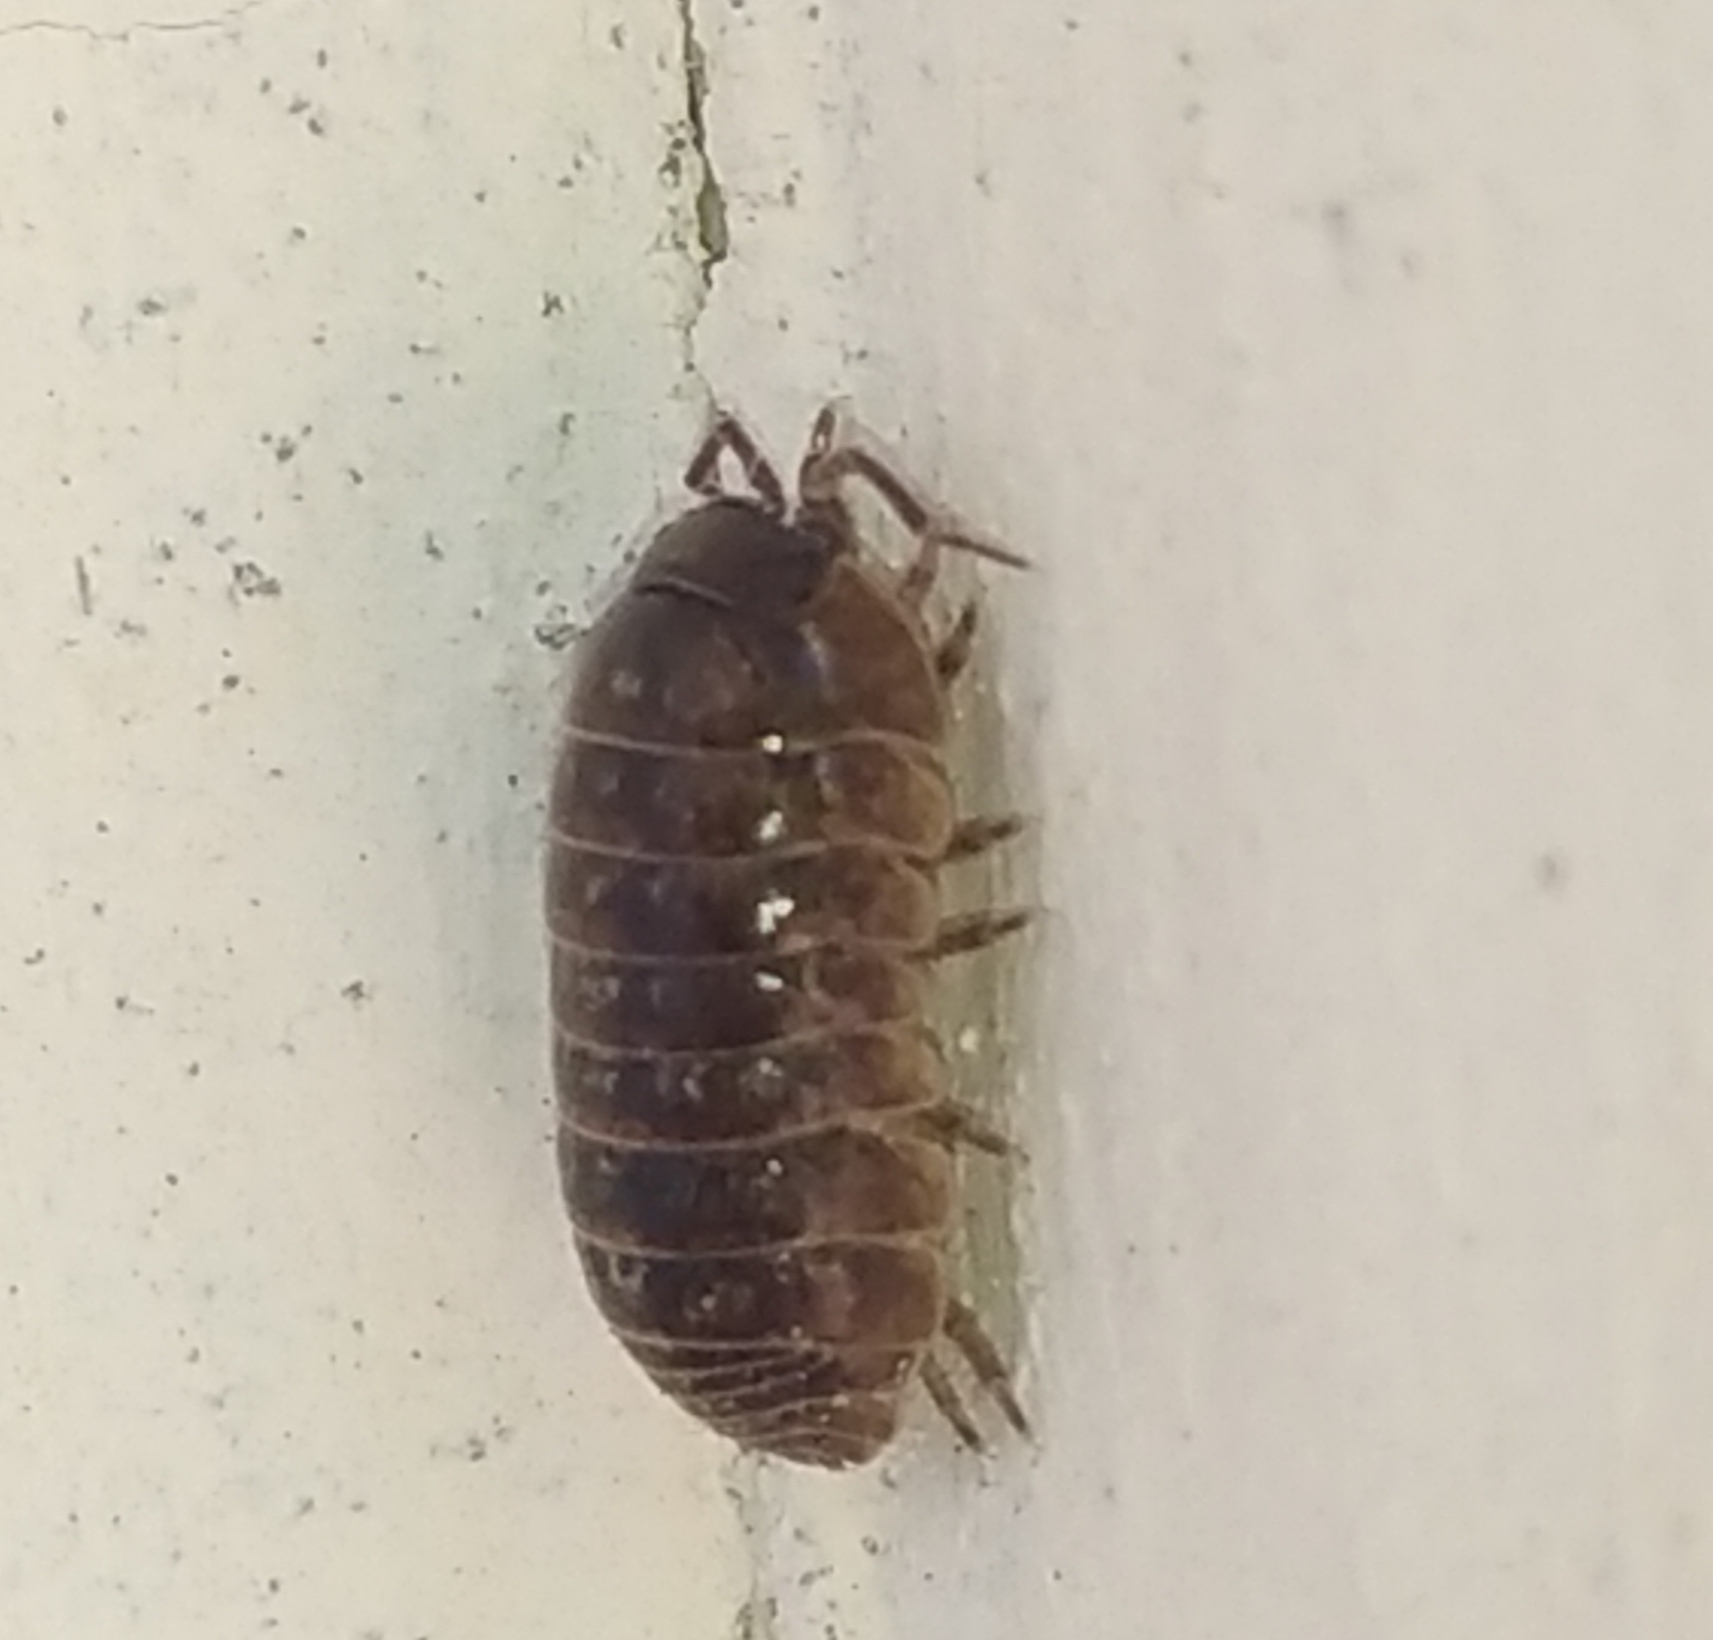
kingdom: Animalia
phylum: Arthropoda
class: Malacostraca
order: Isopoda
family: Armadillidiidae
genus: Armadillidium
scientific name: Armadillidium vulgare
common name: Common pill woodlouse
